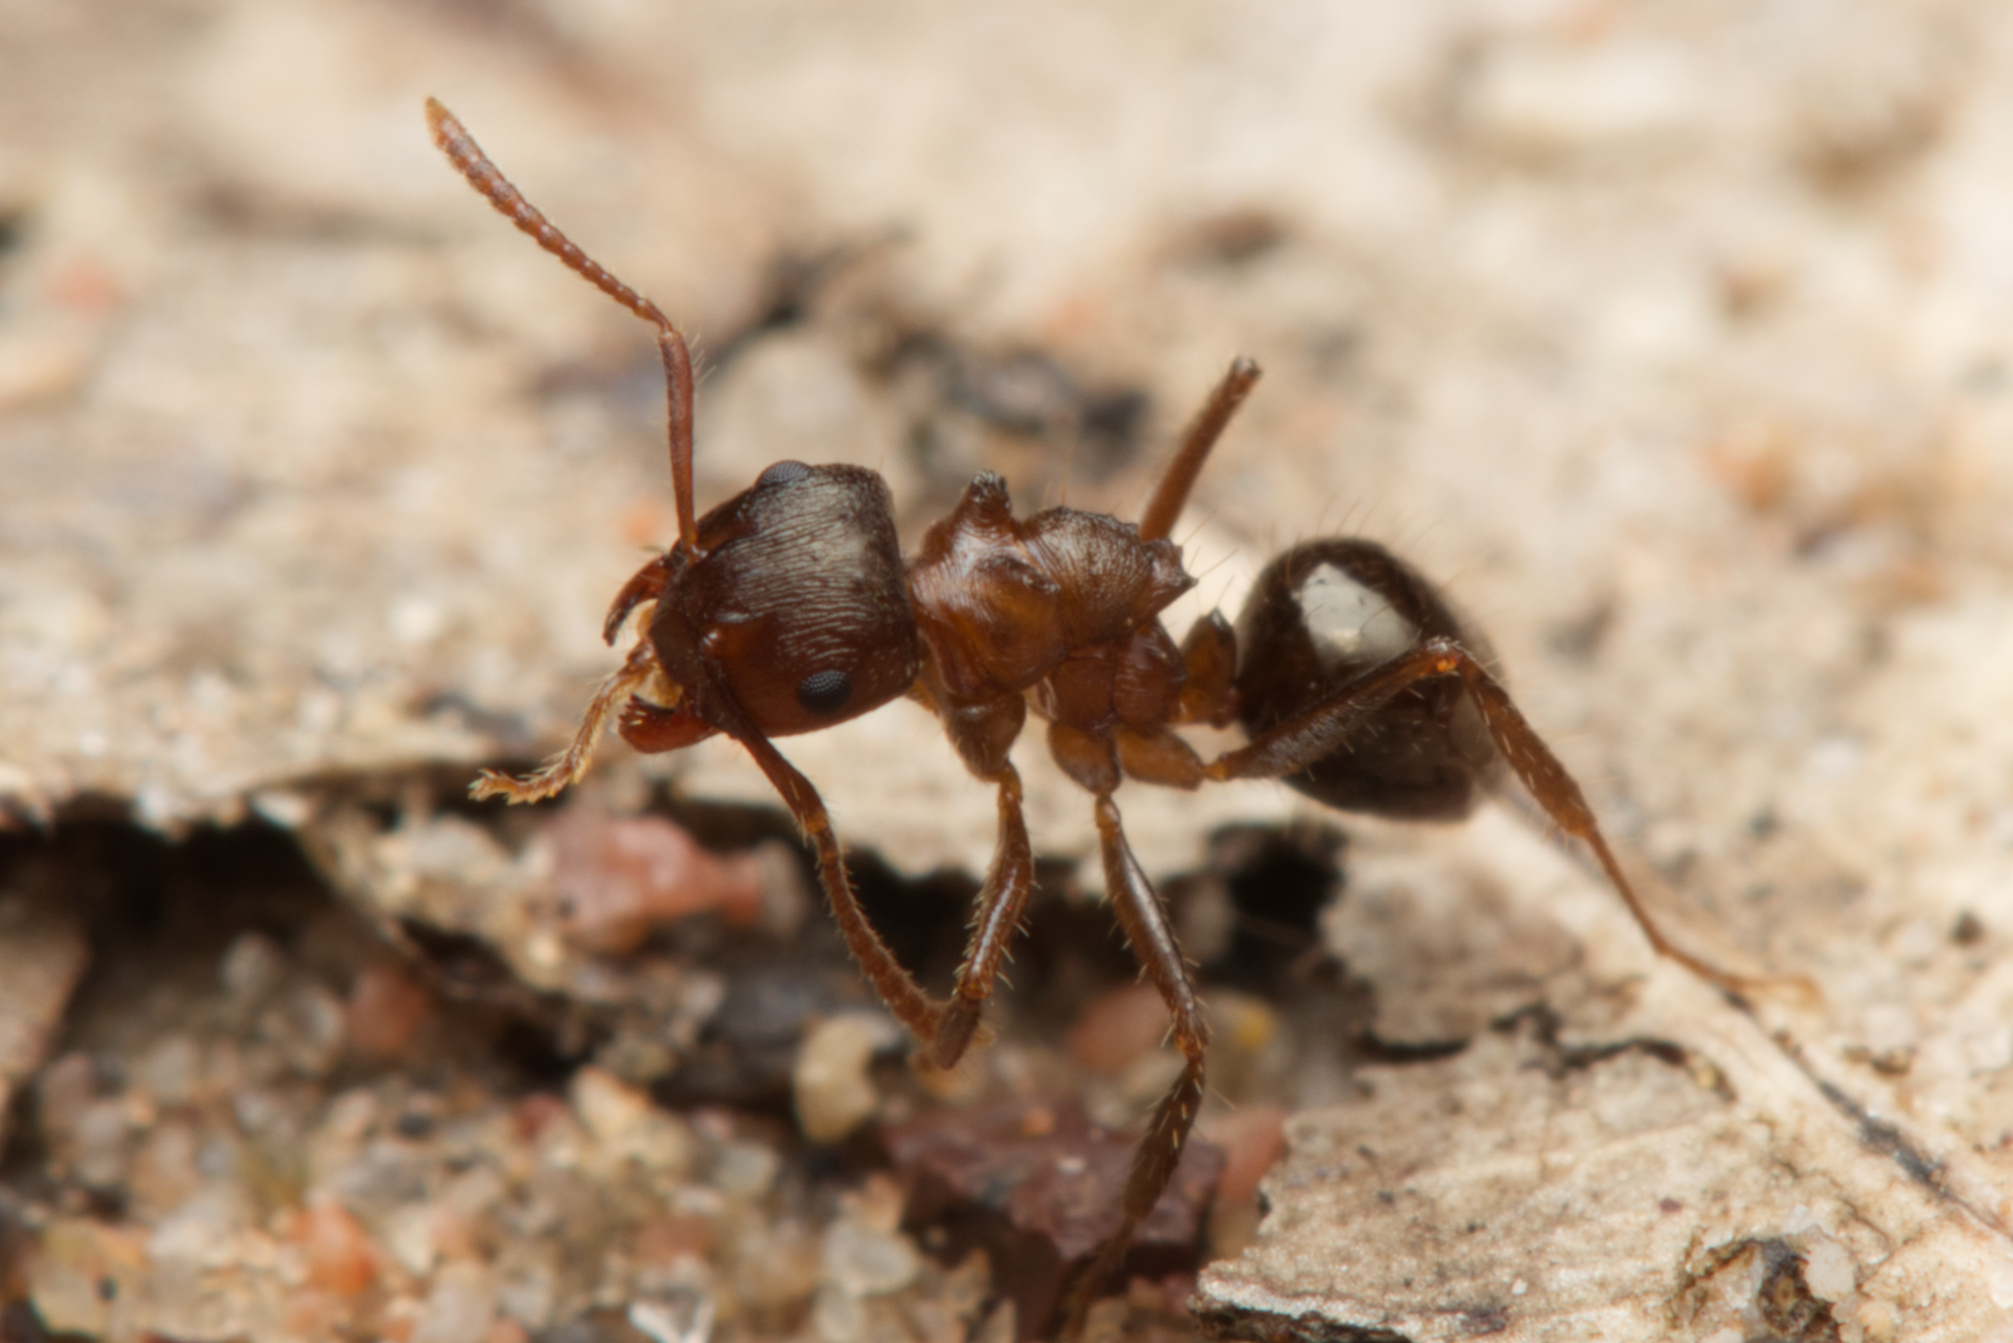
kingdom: Animalia
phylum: Arthropoda
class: Insecta
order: Hymenoptera
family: Formicidae
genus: Notoncus
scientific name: Notoncus ectatommoides
